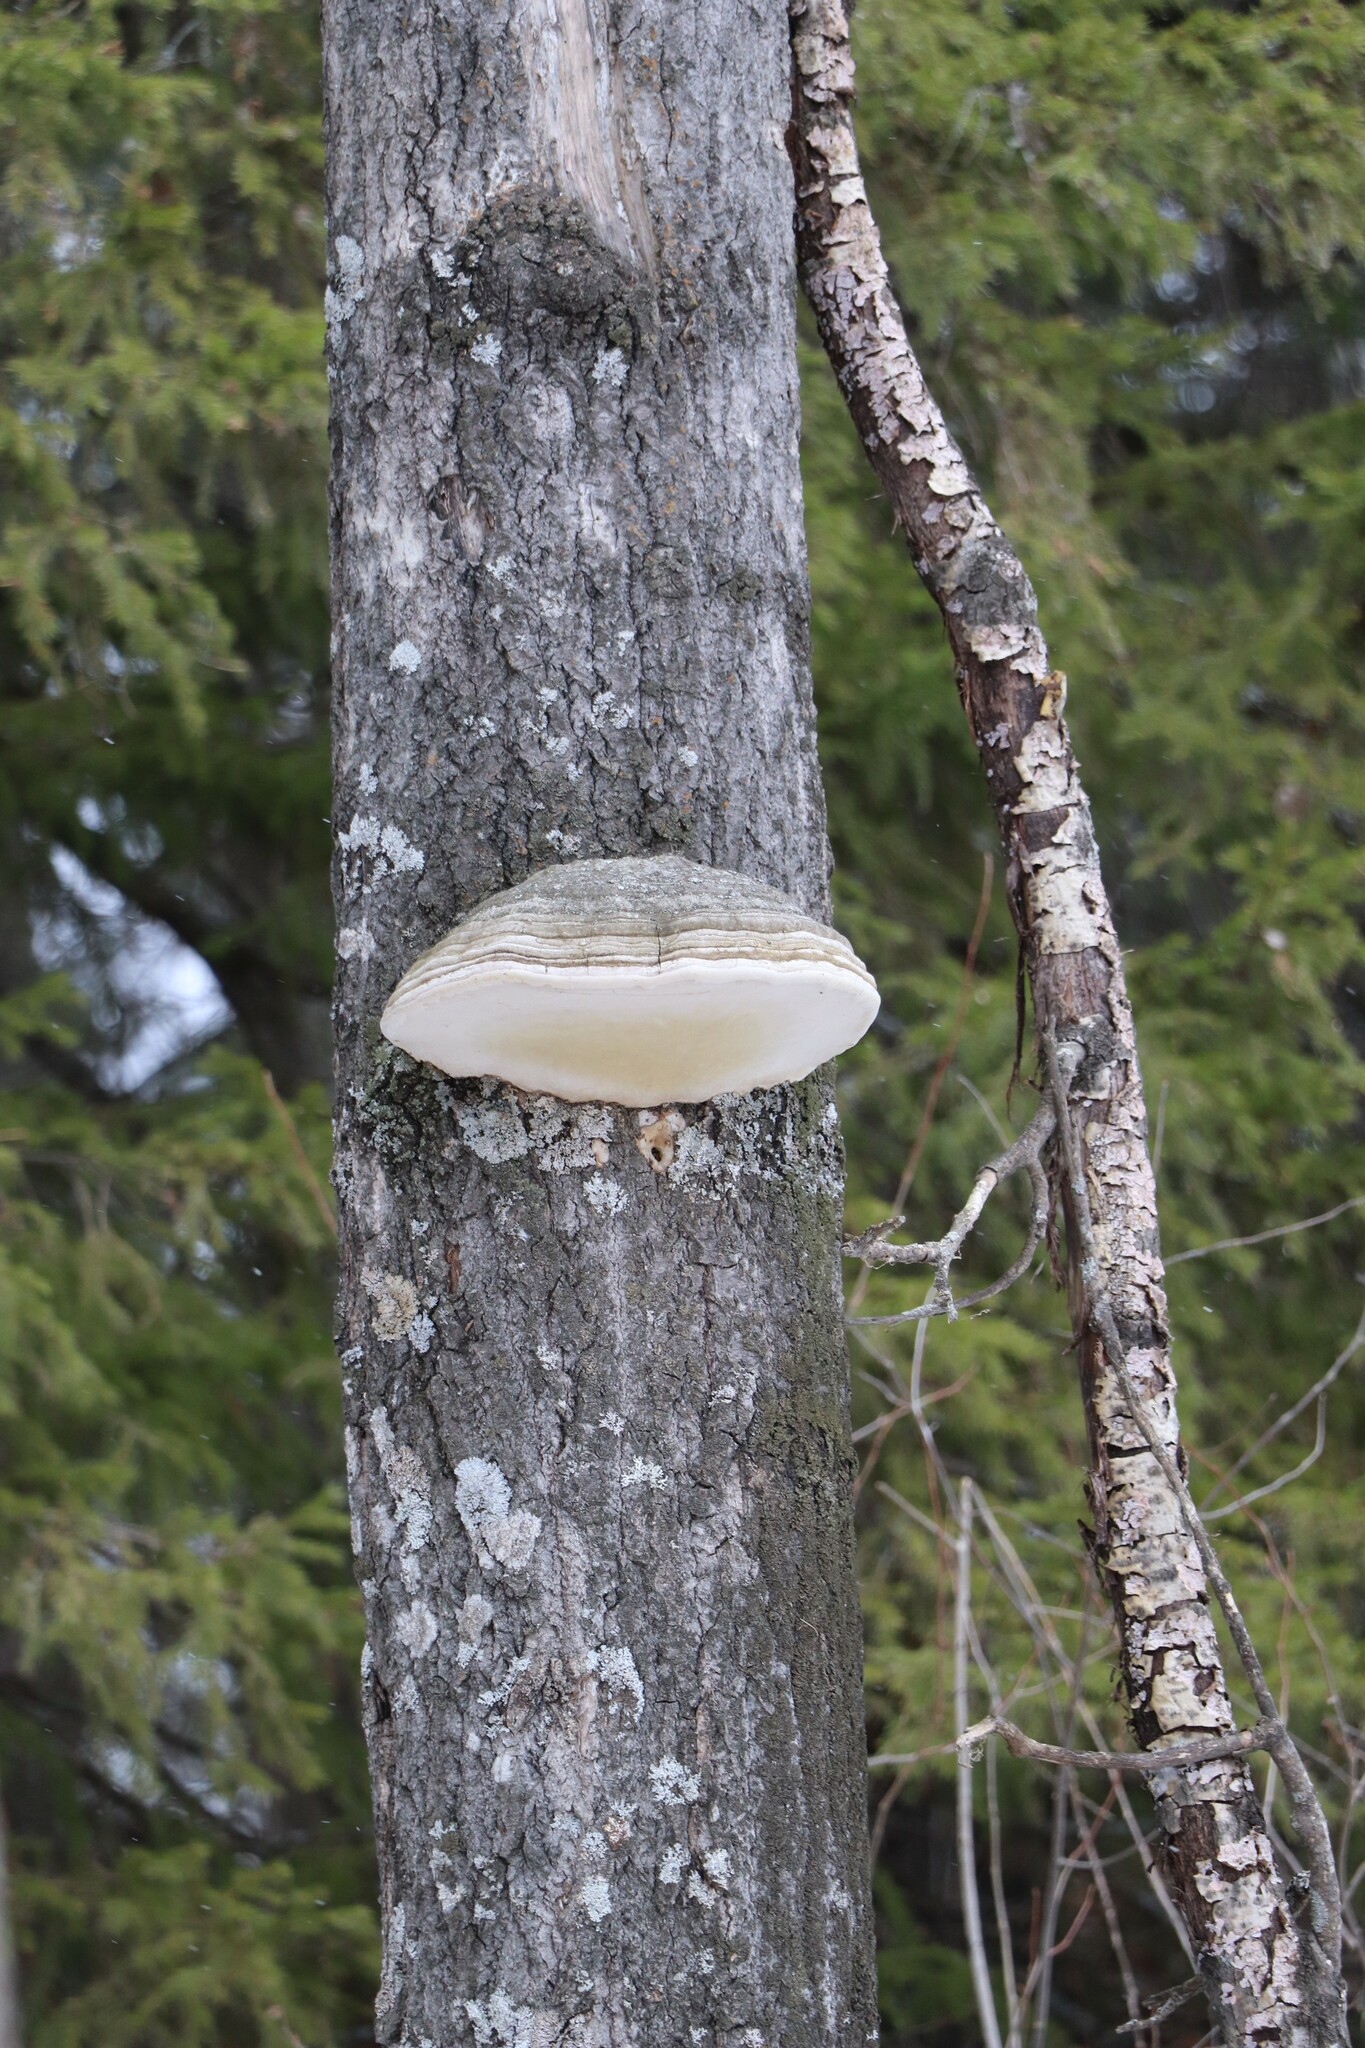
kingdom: Fungi
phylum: Basidiomycota
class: Agaricomycetes
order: Polyporales
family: Polyporaceae
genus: Fomes
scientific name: Fomes fomentarius
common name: Hoof fungus
